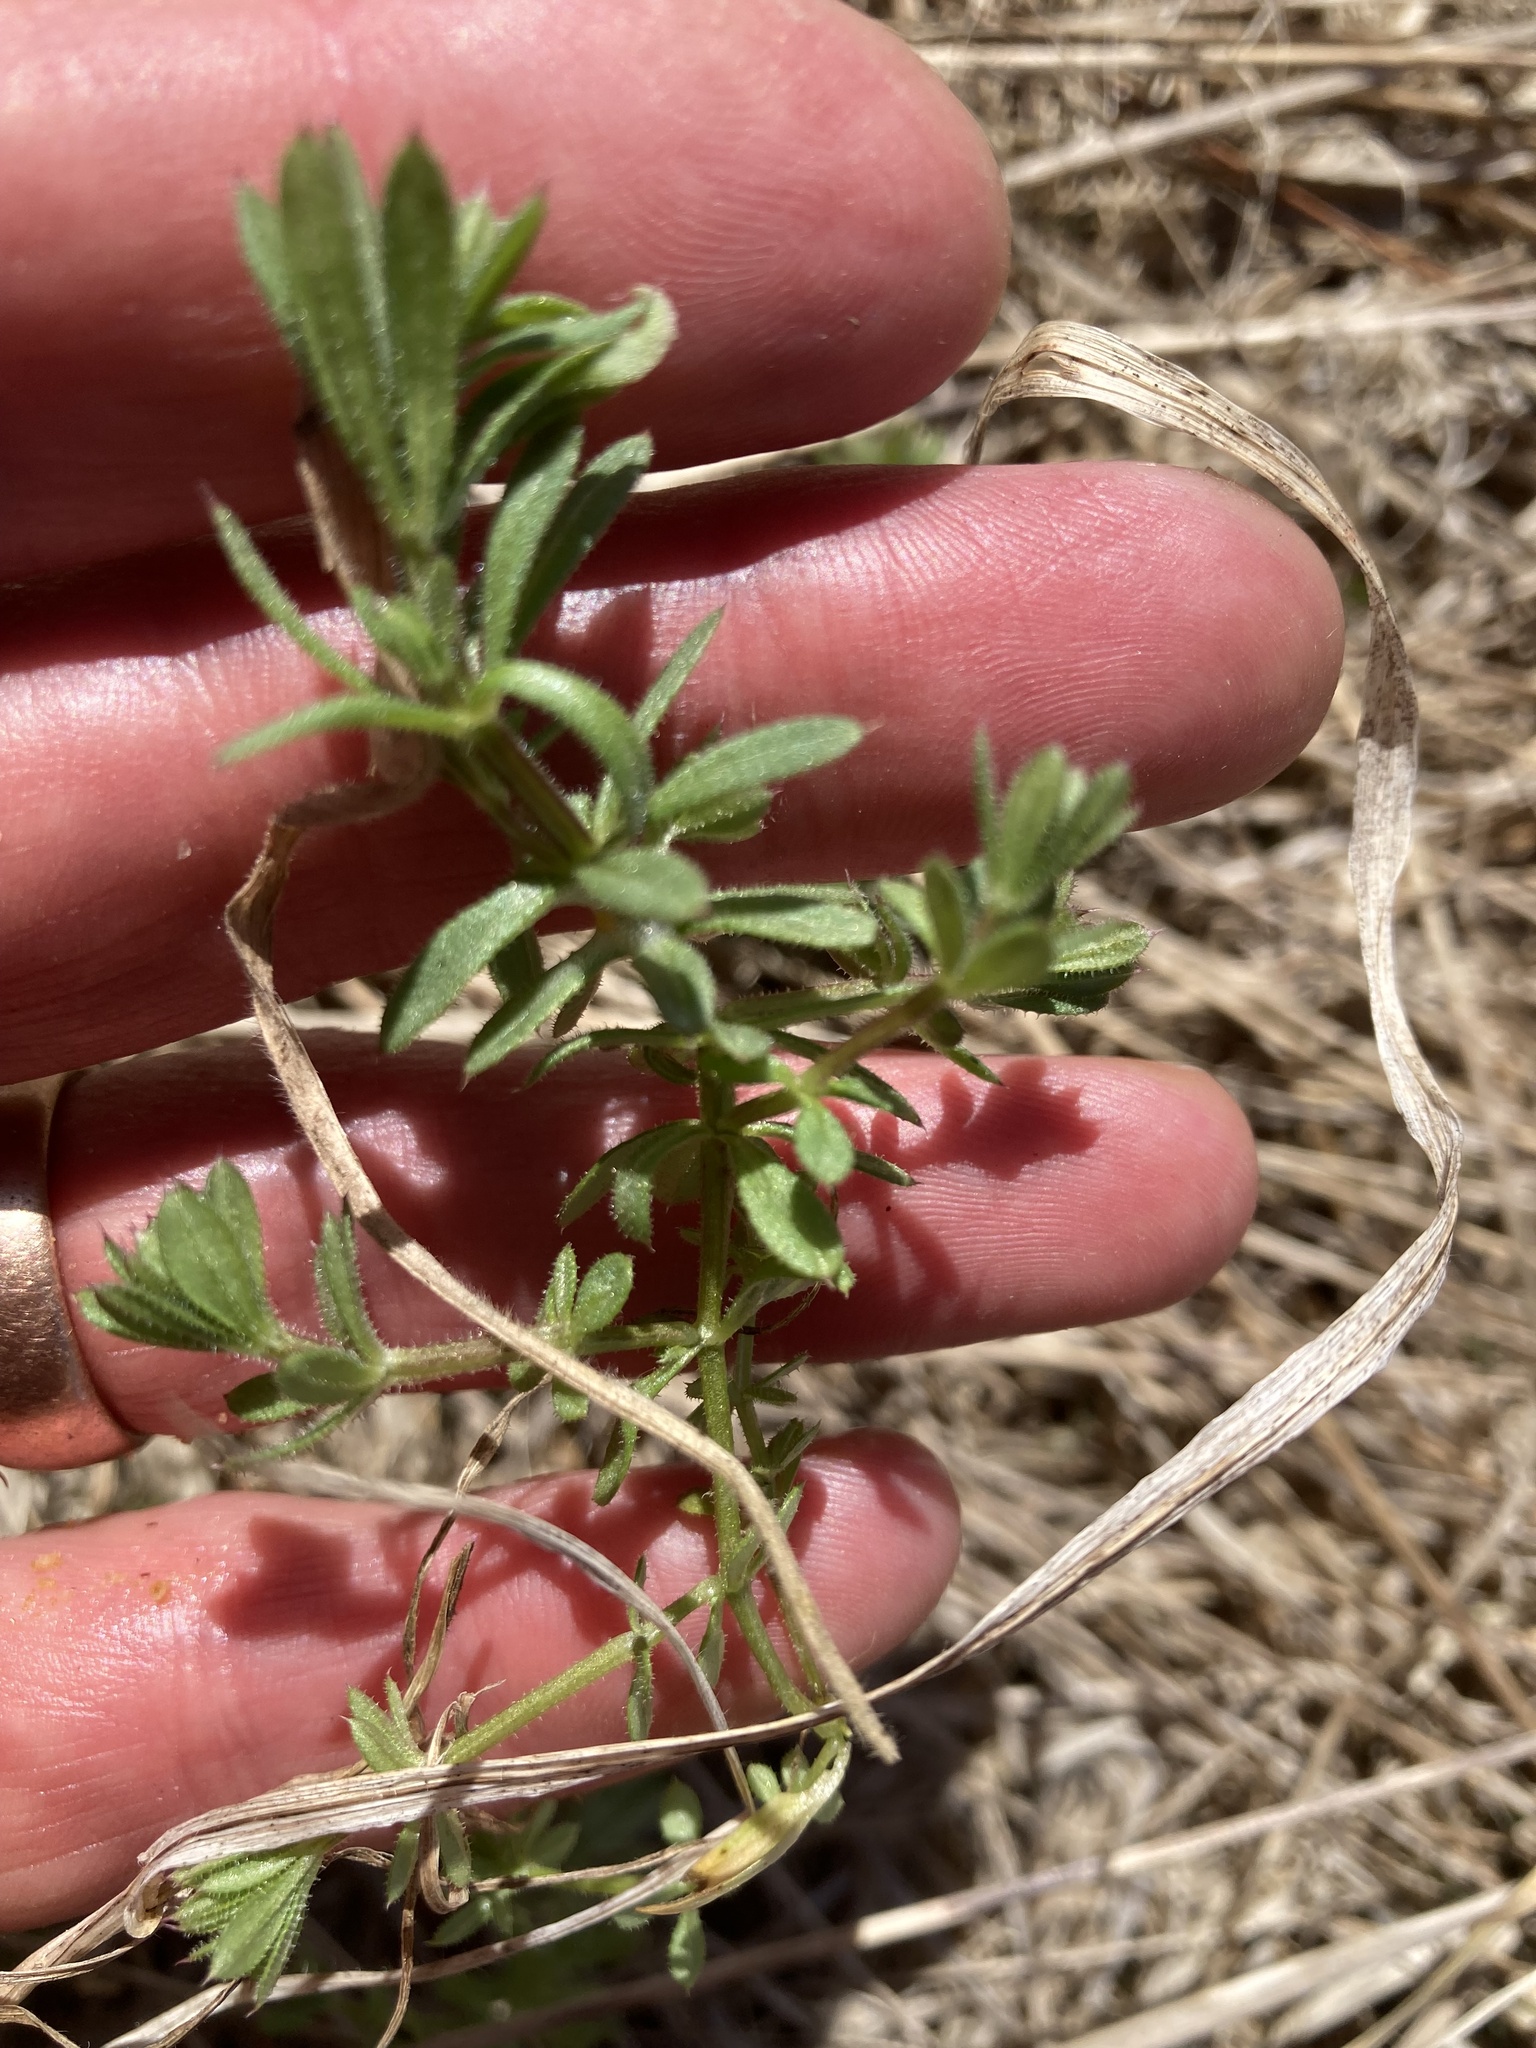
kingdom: Plantae
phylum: Tracheophyta
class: Magnoliopsida
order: Gentianales
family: Rubiaceae
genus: Galium
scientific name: Galium aparine
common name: Cleavers
